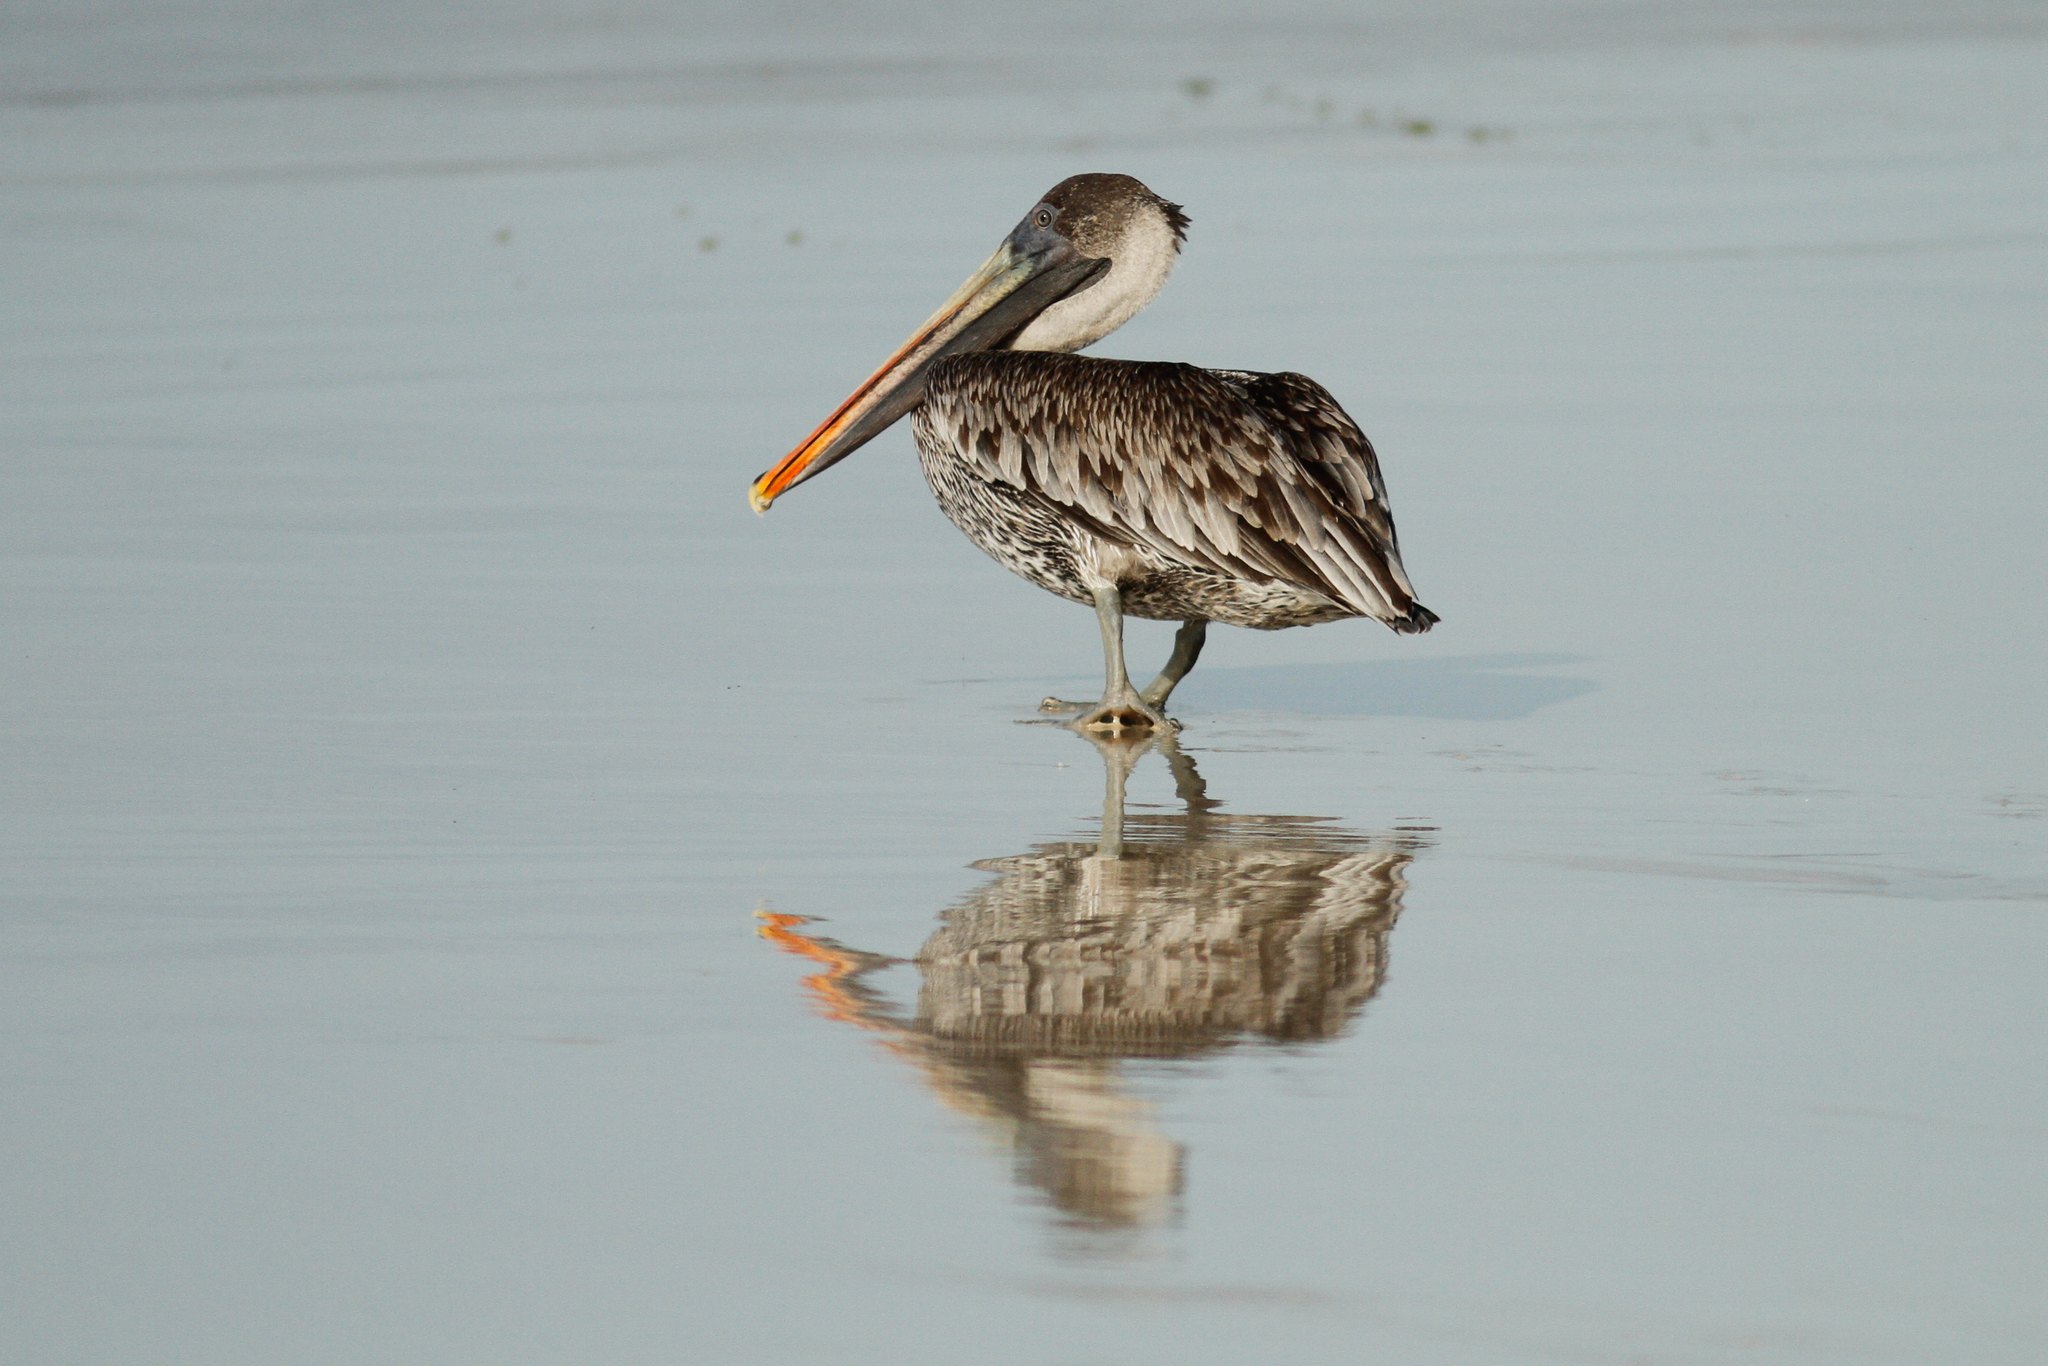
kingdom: Animalia
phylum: Chordata
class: Aves
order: Pelecaniformes
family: Pelecanidae
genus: Pelecanus
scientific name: Pelecanus occidentalis
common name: Brown pelican
